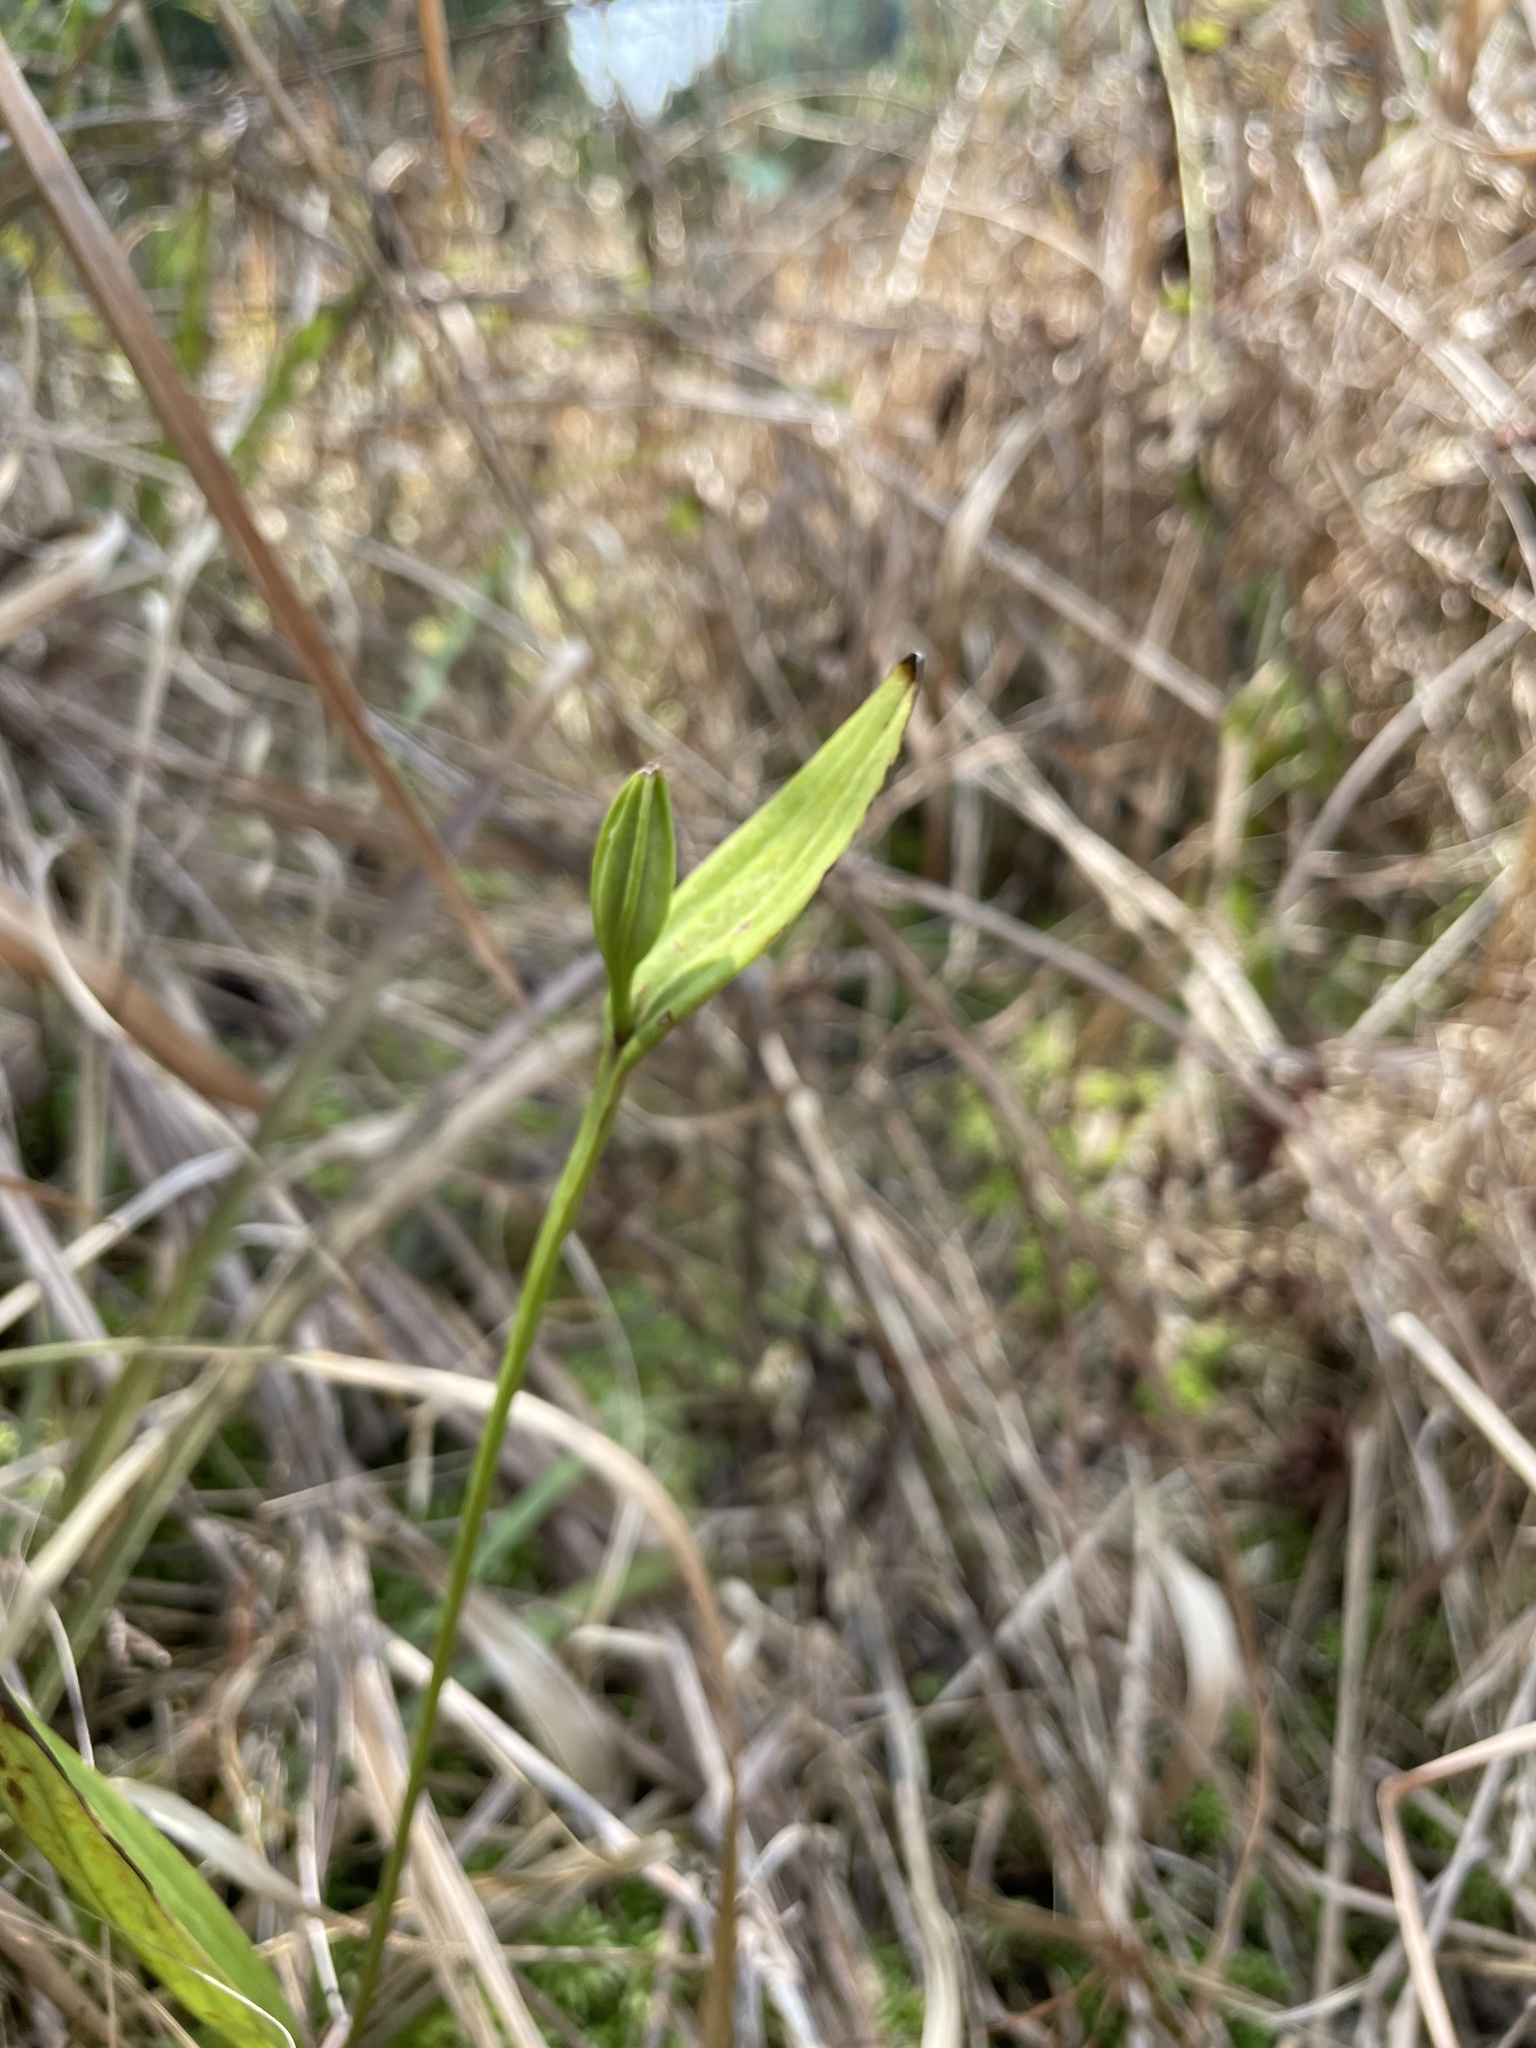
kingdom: Plantae
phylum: Tracheophyta
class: Liliopsida
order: Asparagales
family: Orchidaceae
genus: Pogonia
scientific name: Pogonia ophioglossoides
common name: Rose pogonia
